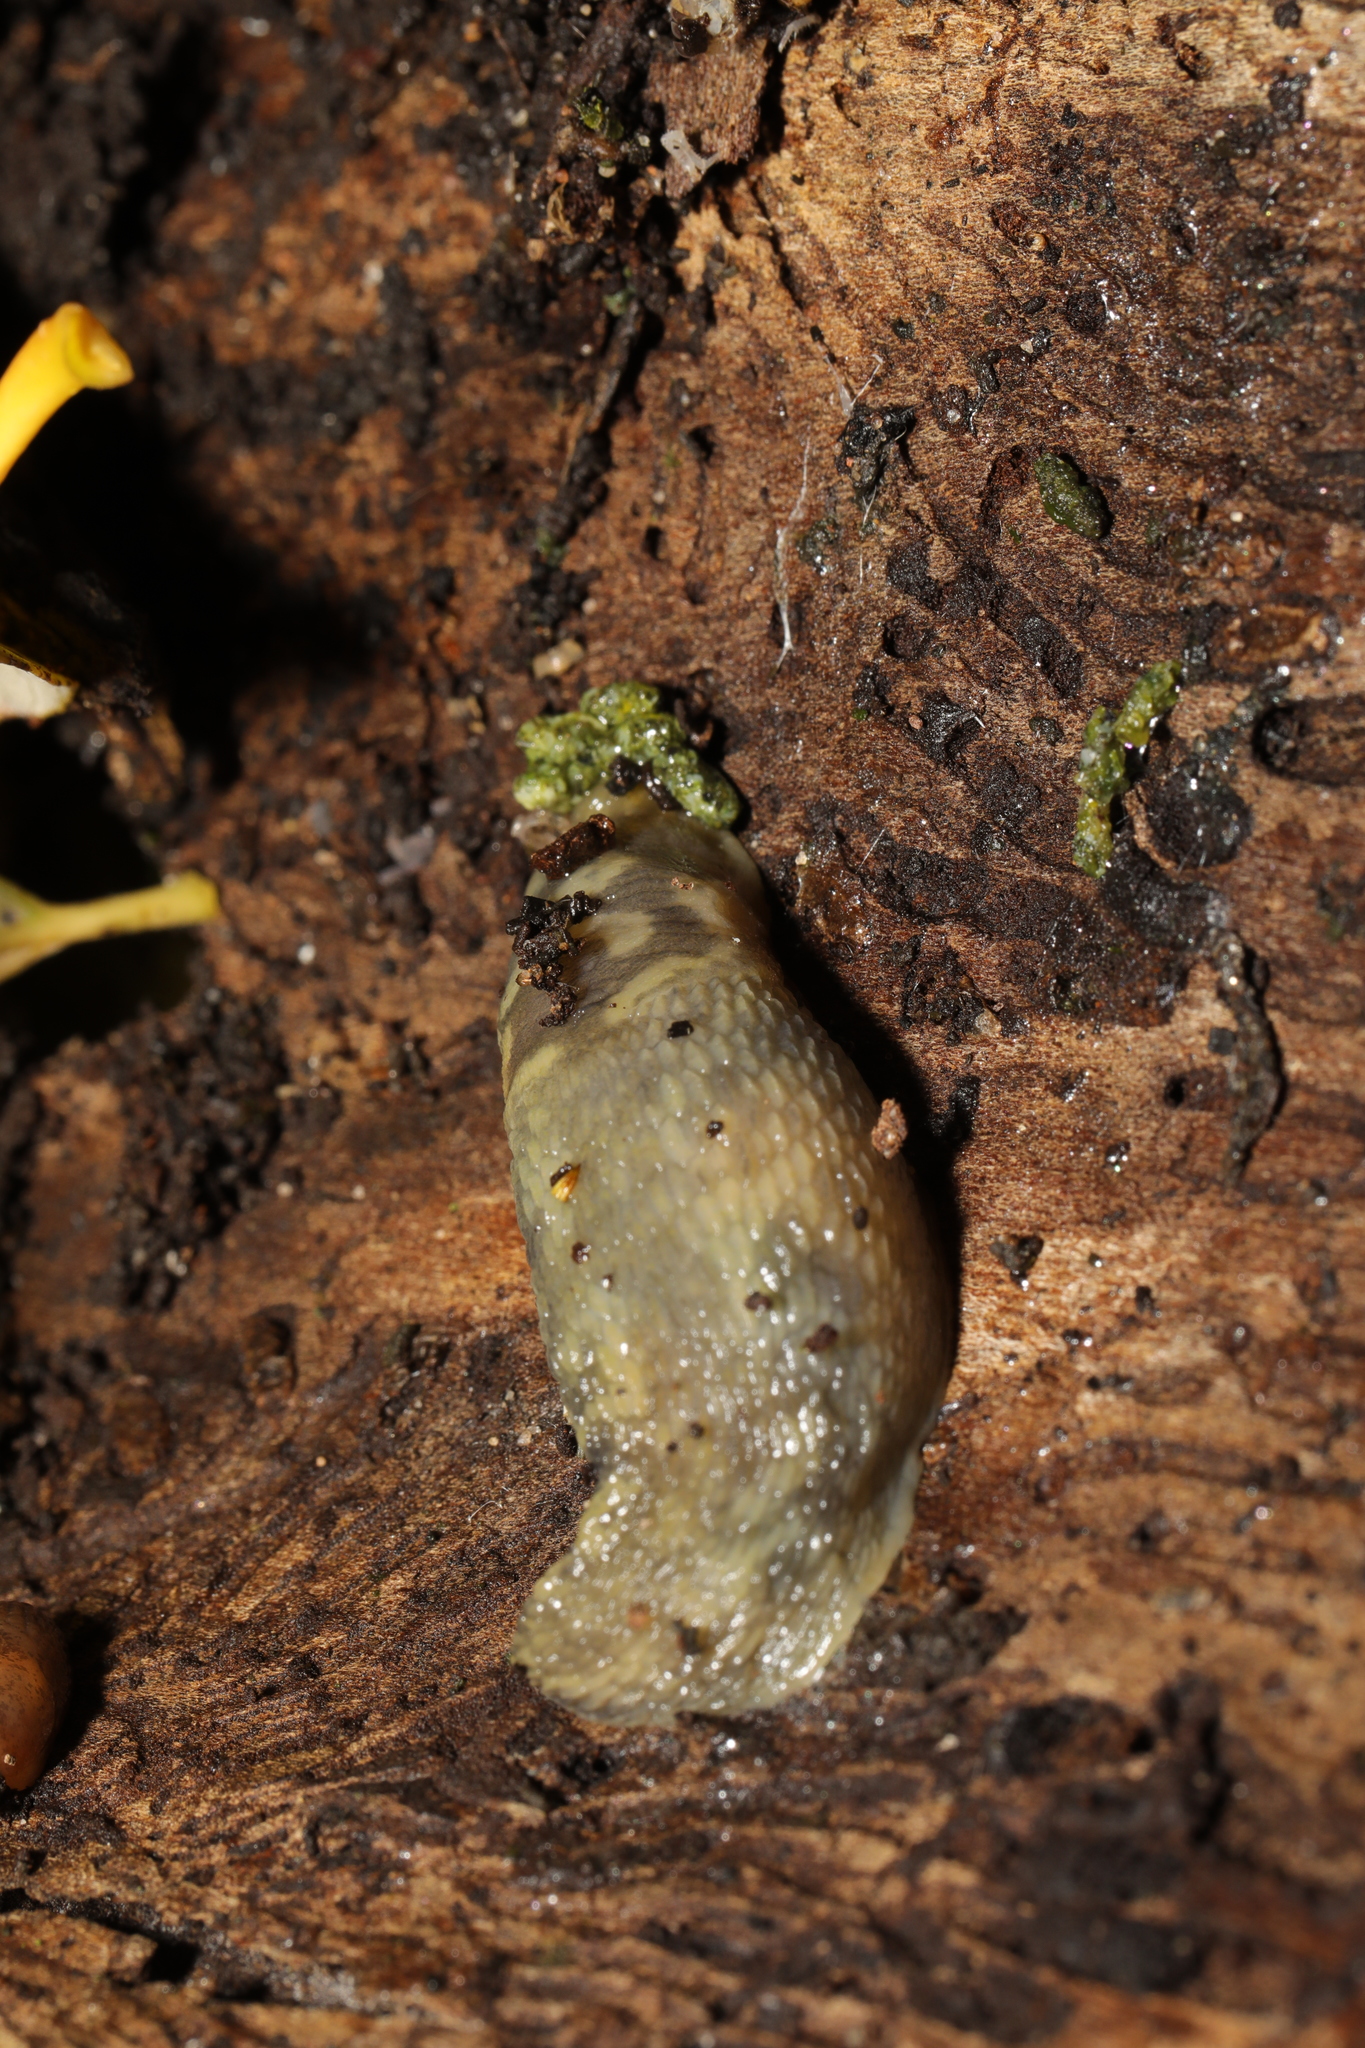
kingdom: Animalia
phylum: Mollusca
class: Gastropoda
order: Stylommatophora
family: Limacidae
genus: Limacus
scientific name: Limacus maculatus
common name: Irish yellow slug
